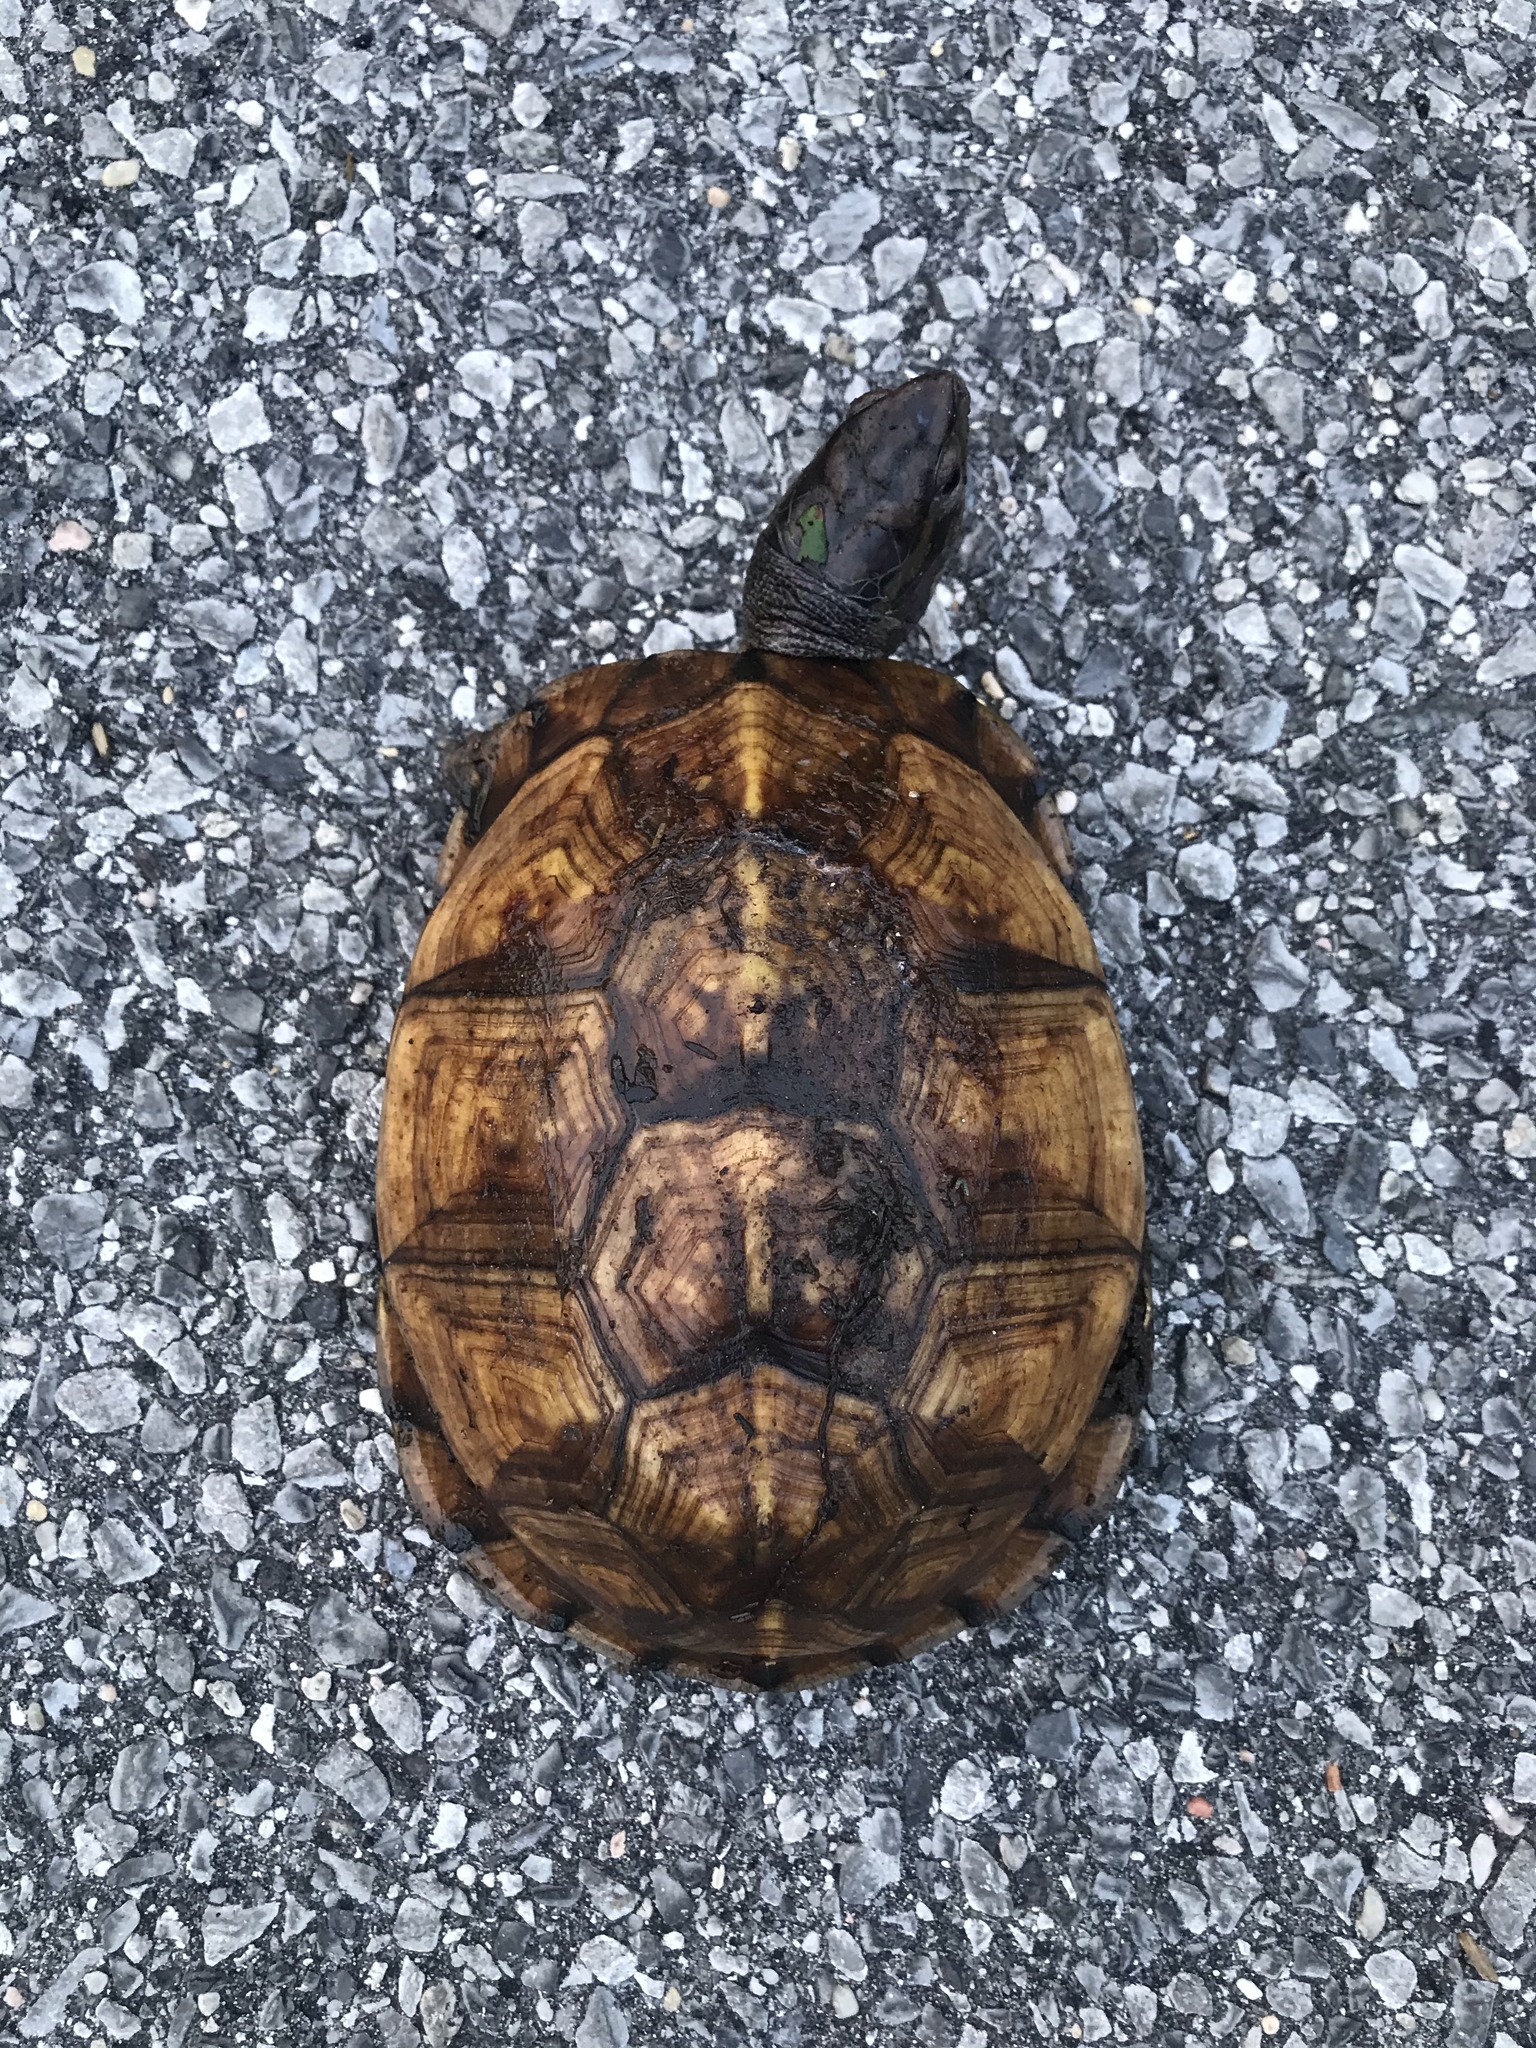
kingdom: Animalia
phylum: Chordata
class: Testudines
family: Emydidae
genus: Terrapene
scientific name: Terrapene carolina
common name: Common box turtle
